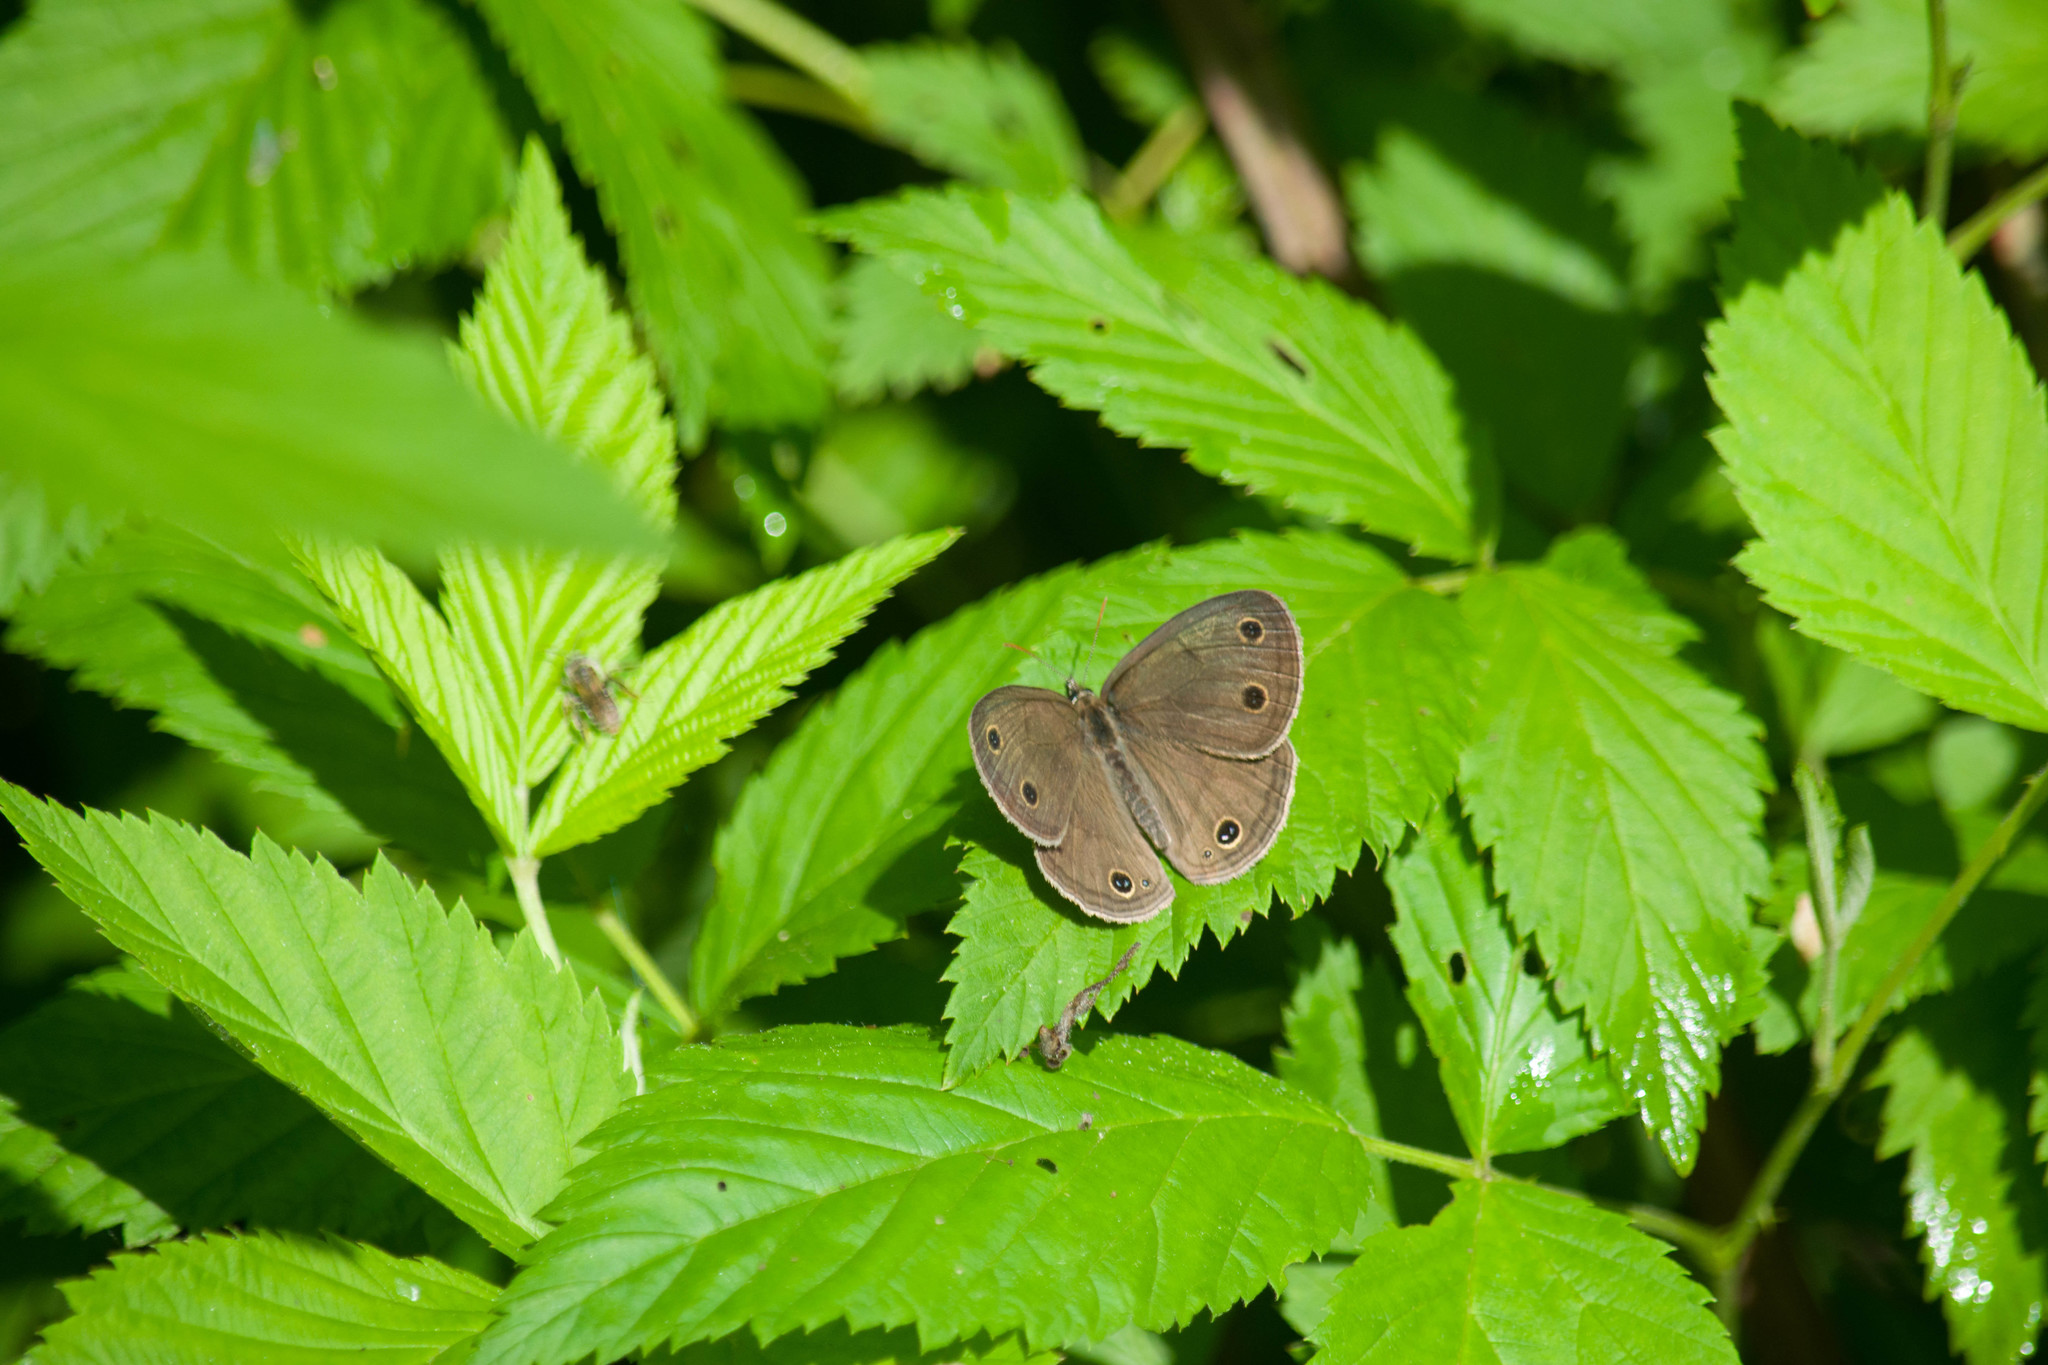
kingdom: Animalia
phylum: Arthropoda
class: Insecta
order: Lepidoptera
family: Nymphalidae
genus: Euptychia
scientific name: Euptychia cymela
